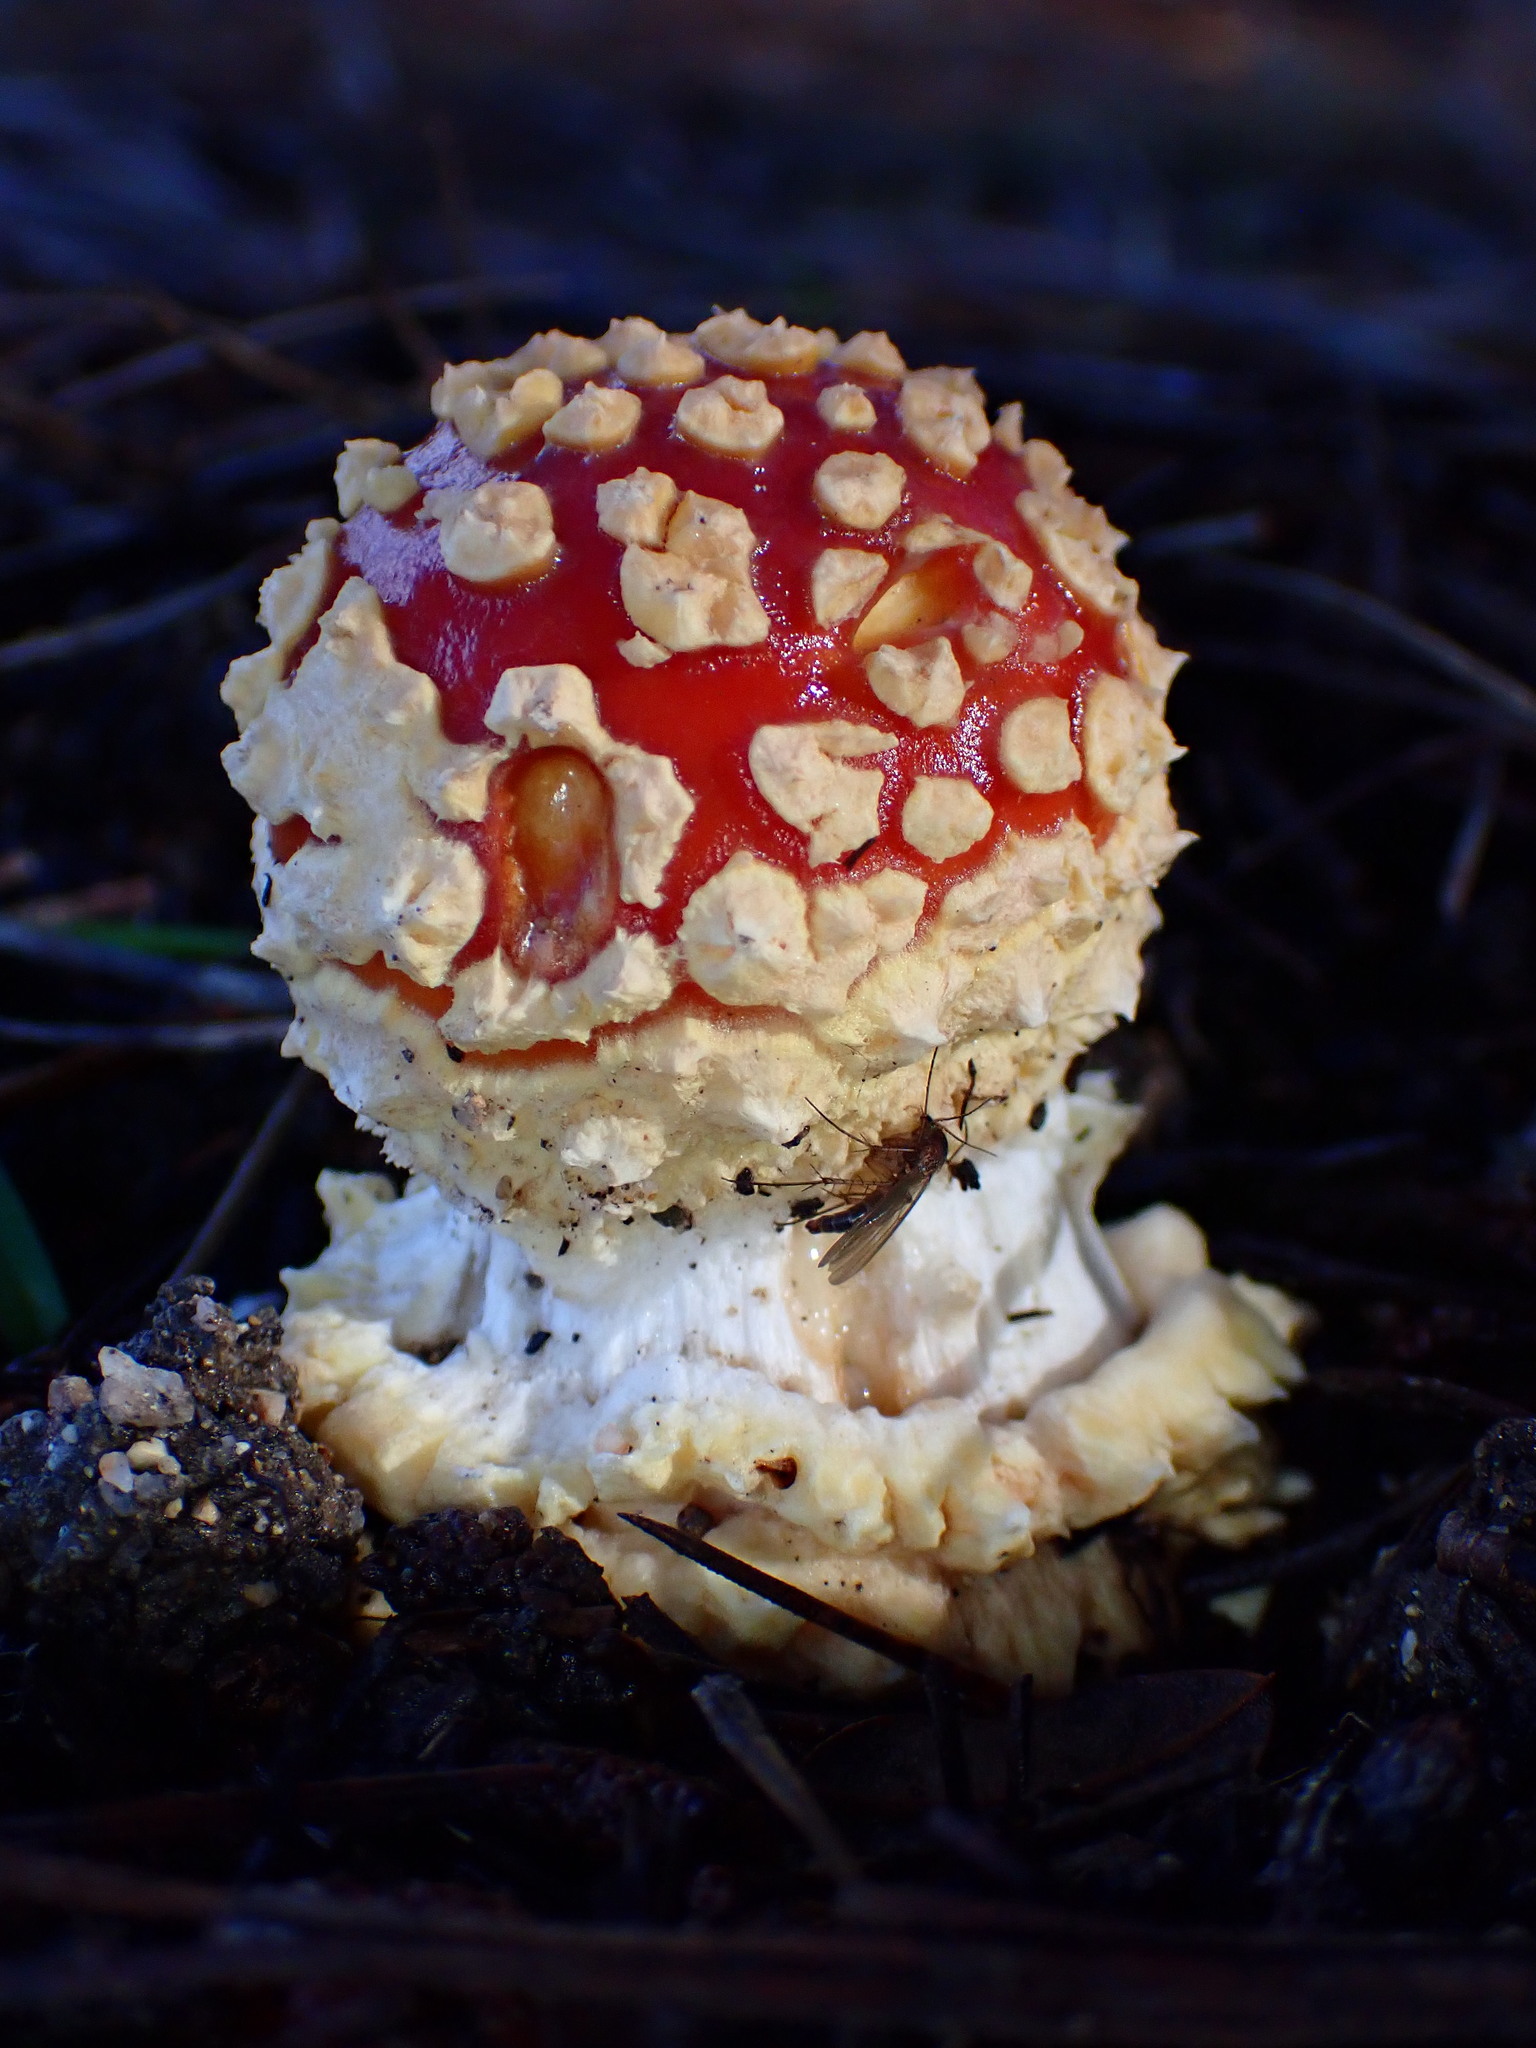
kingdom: Fungi
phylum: Basidiomycota
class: Agaricomycetes
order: Agaricales
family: Amanitaceae
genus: Amanita
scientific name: Amanita muscaria
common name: Fly agaric
